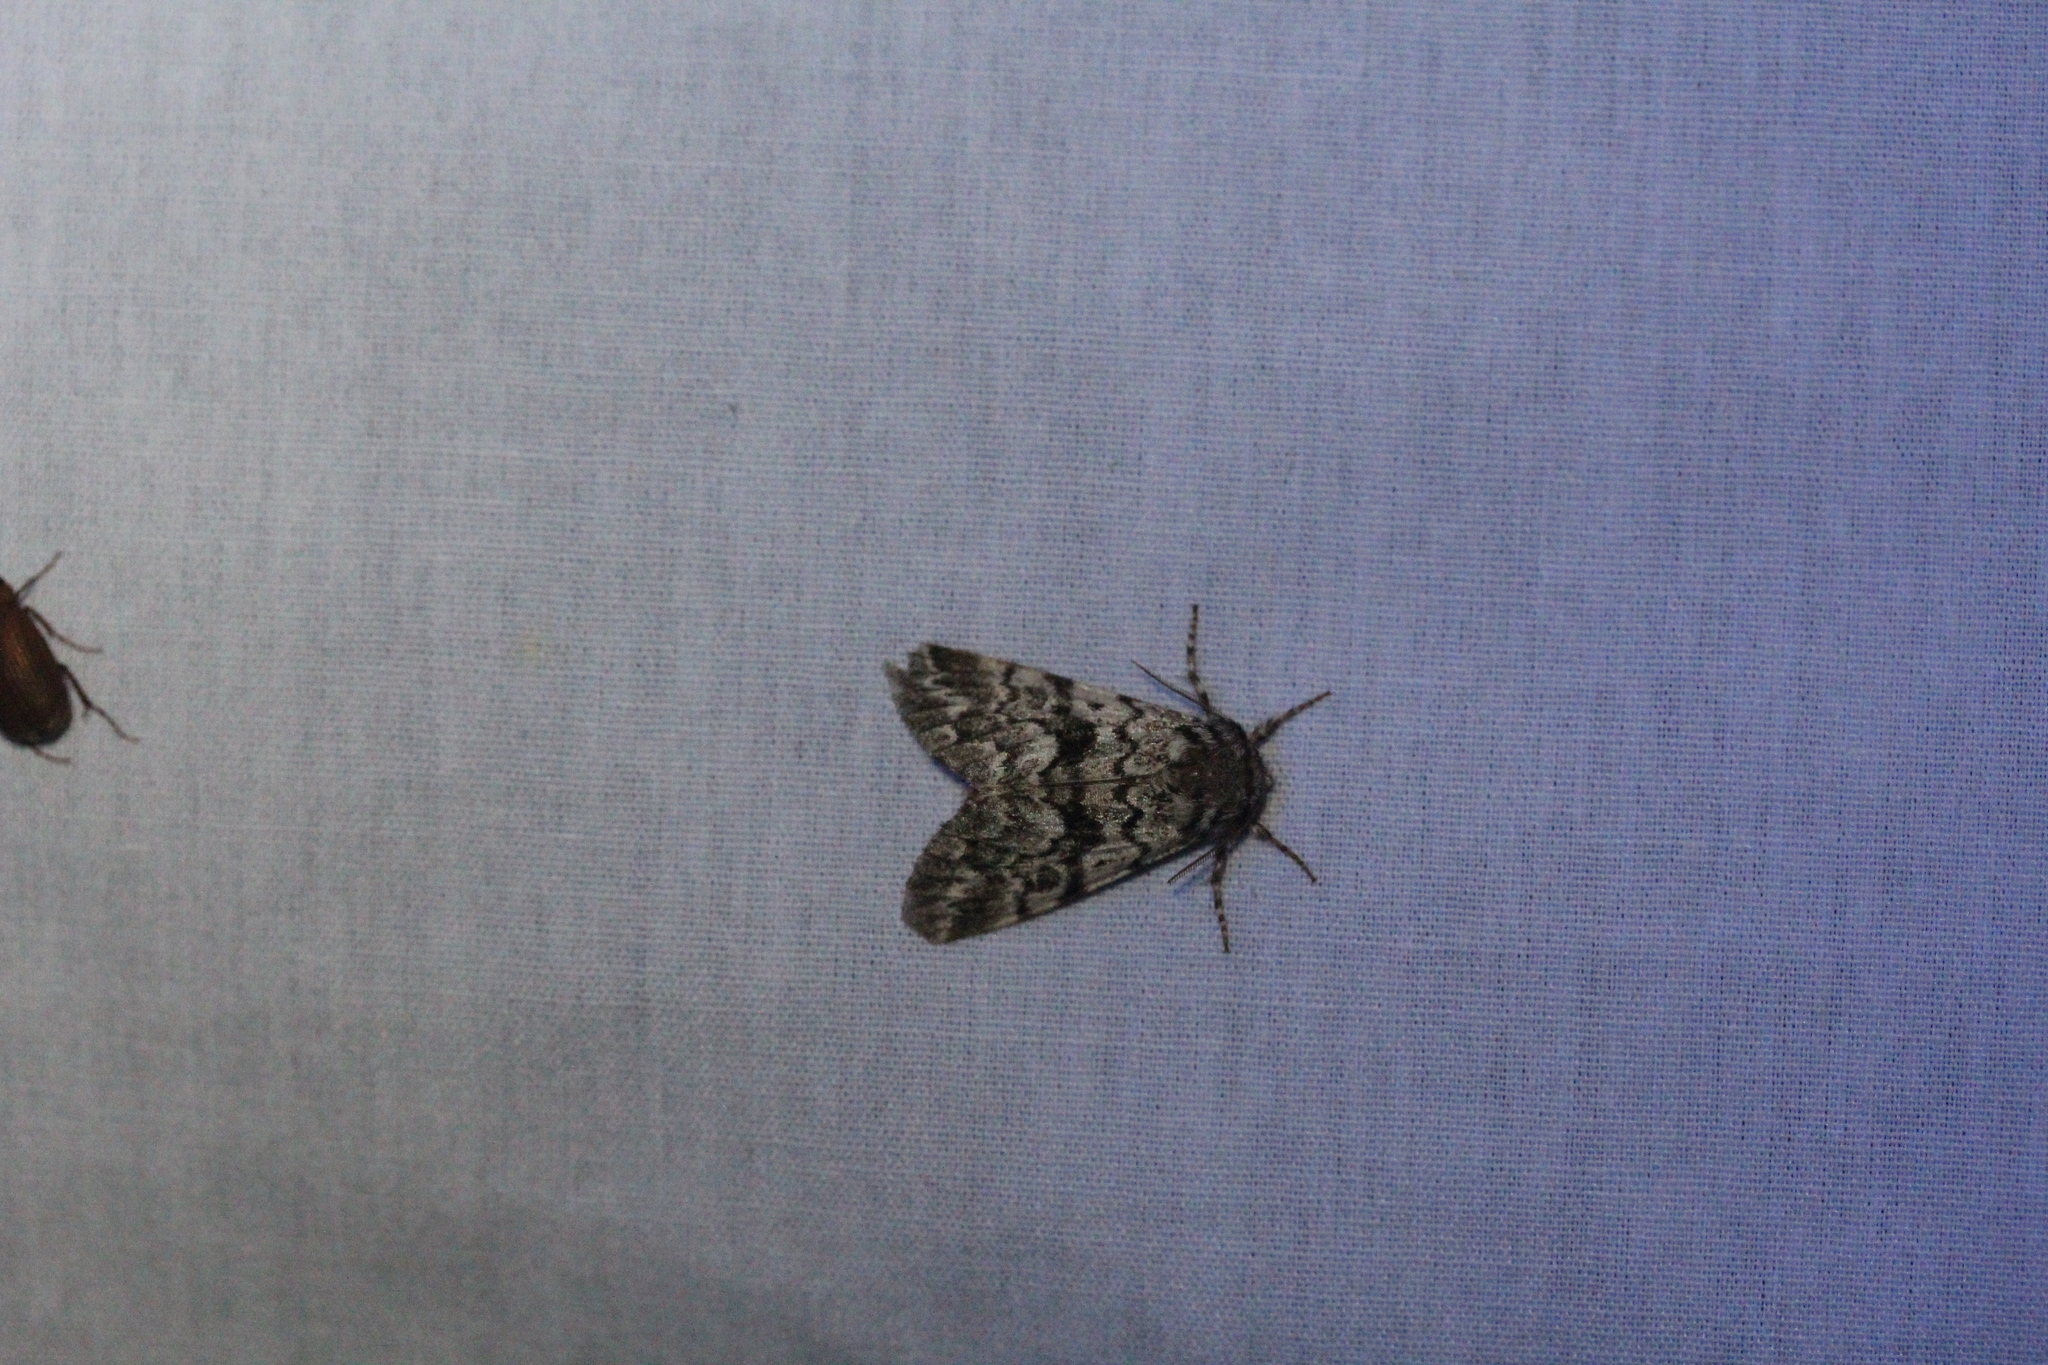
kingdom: Animalia
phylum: Arthropoda
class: Insecta
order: Lepidoptera
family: Noctuidae
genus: Panthea
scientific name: Panthea acronyctoides
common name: Black zigzag moth
